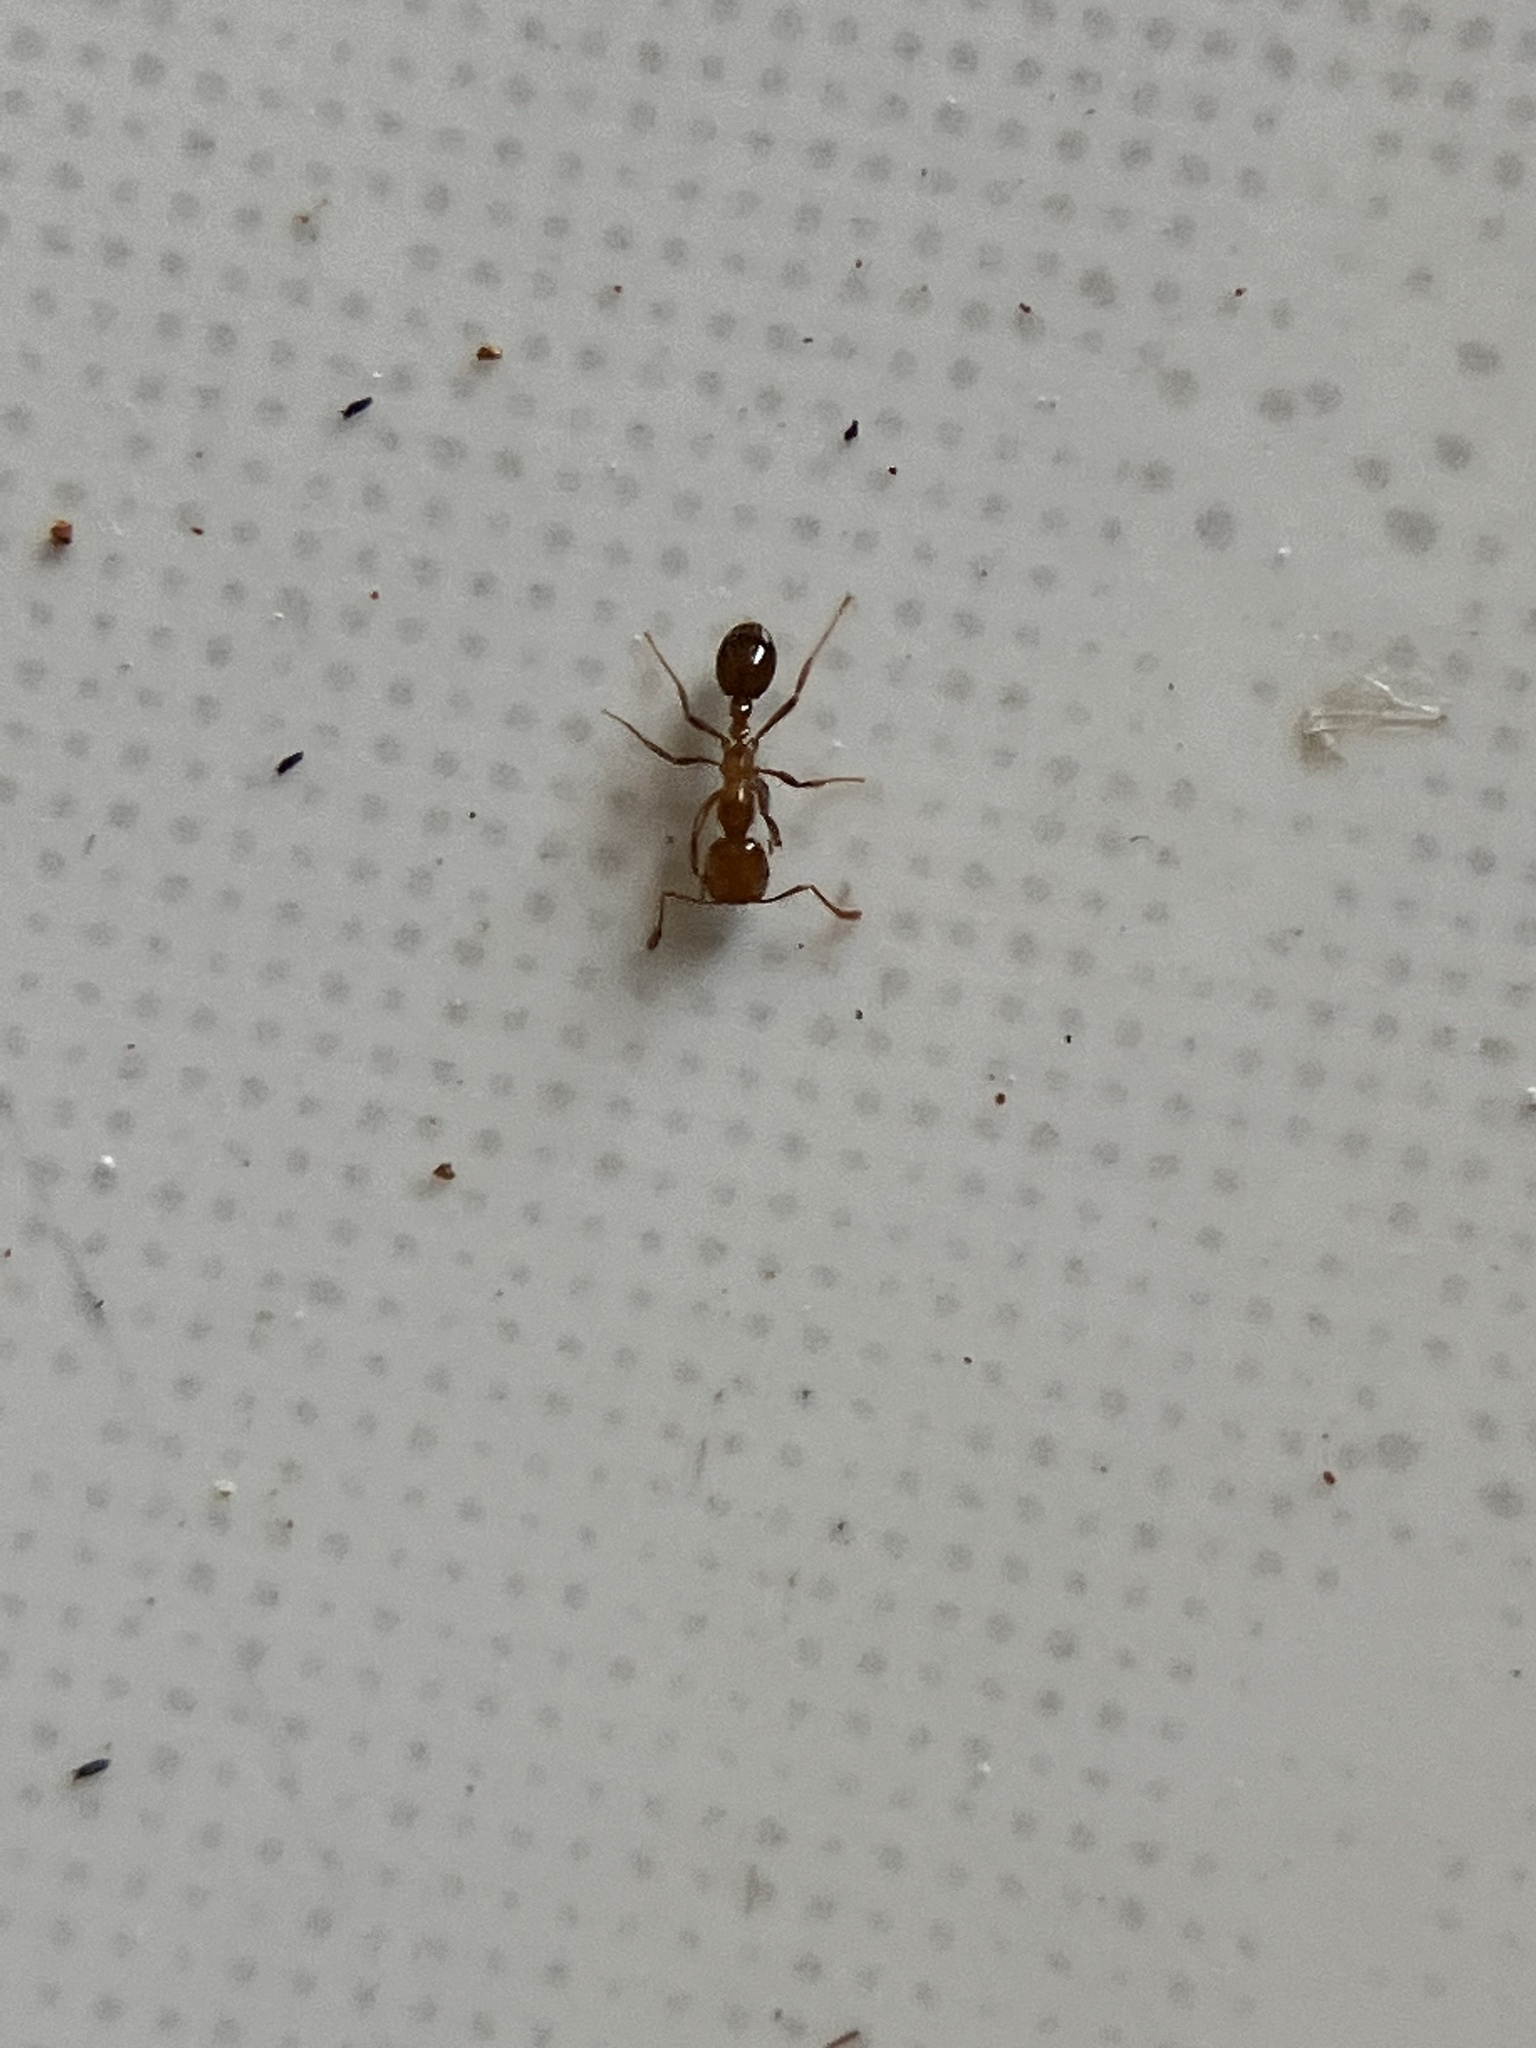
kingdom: Animalia
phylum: Arthropoda
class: Insecta
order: Hymenoptera
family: Formicidae
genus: Solenopsis
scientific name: Solenopsis geminata
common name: Tropical fire ant
